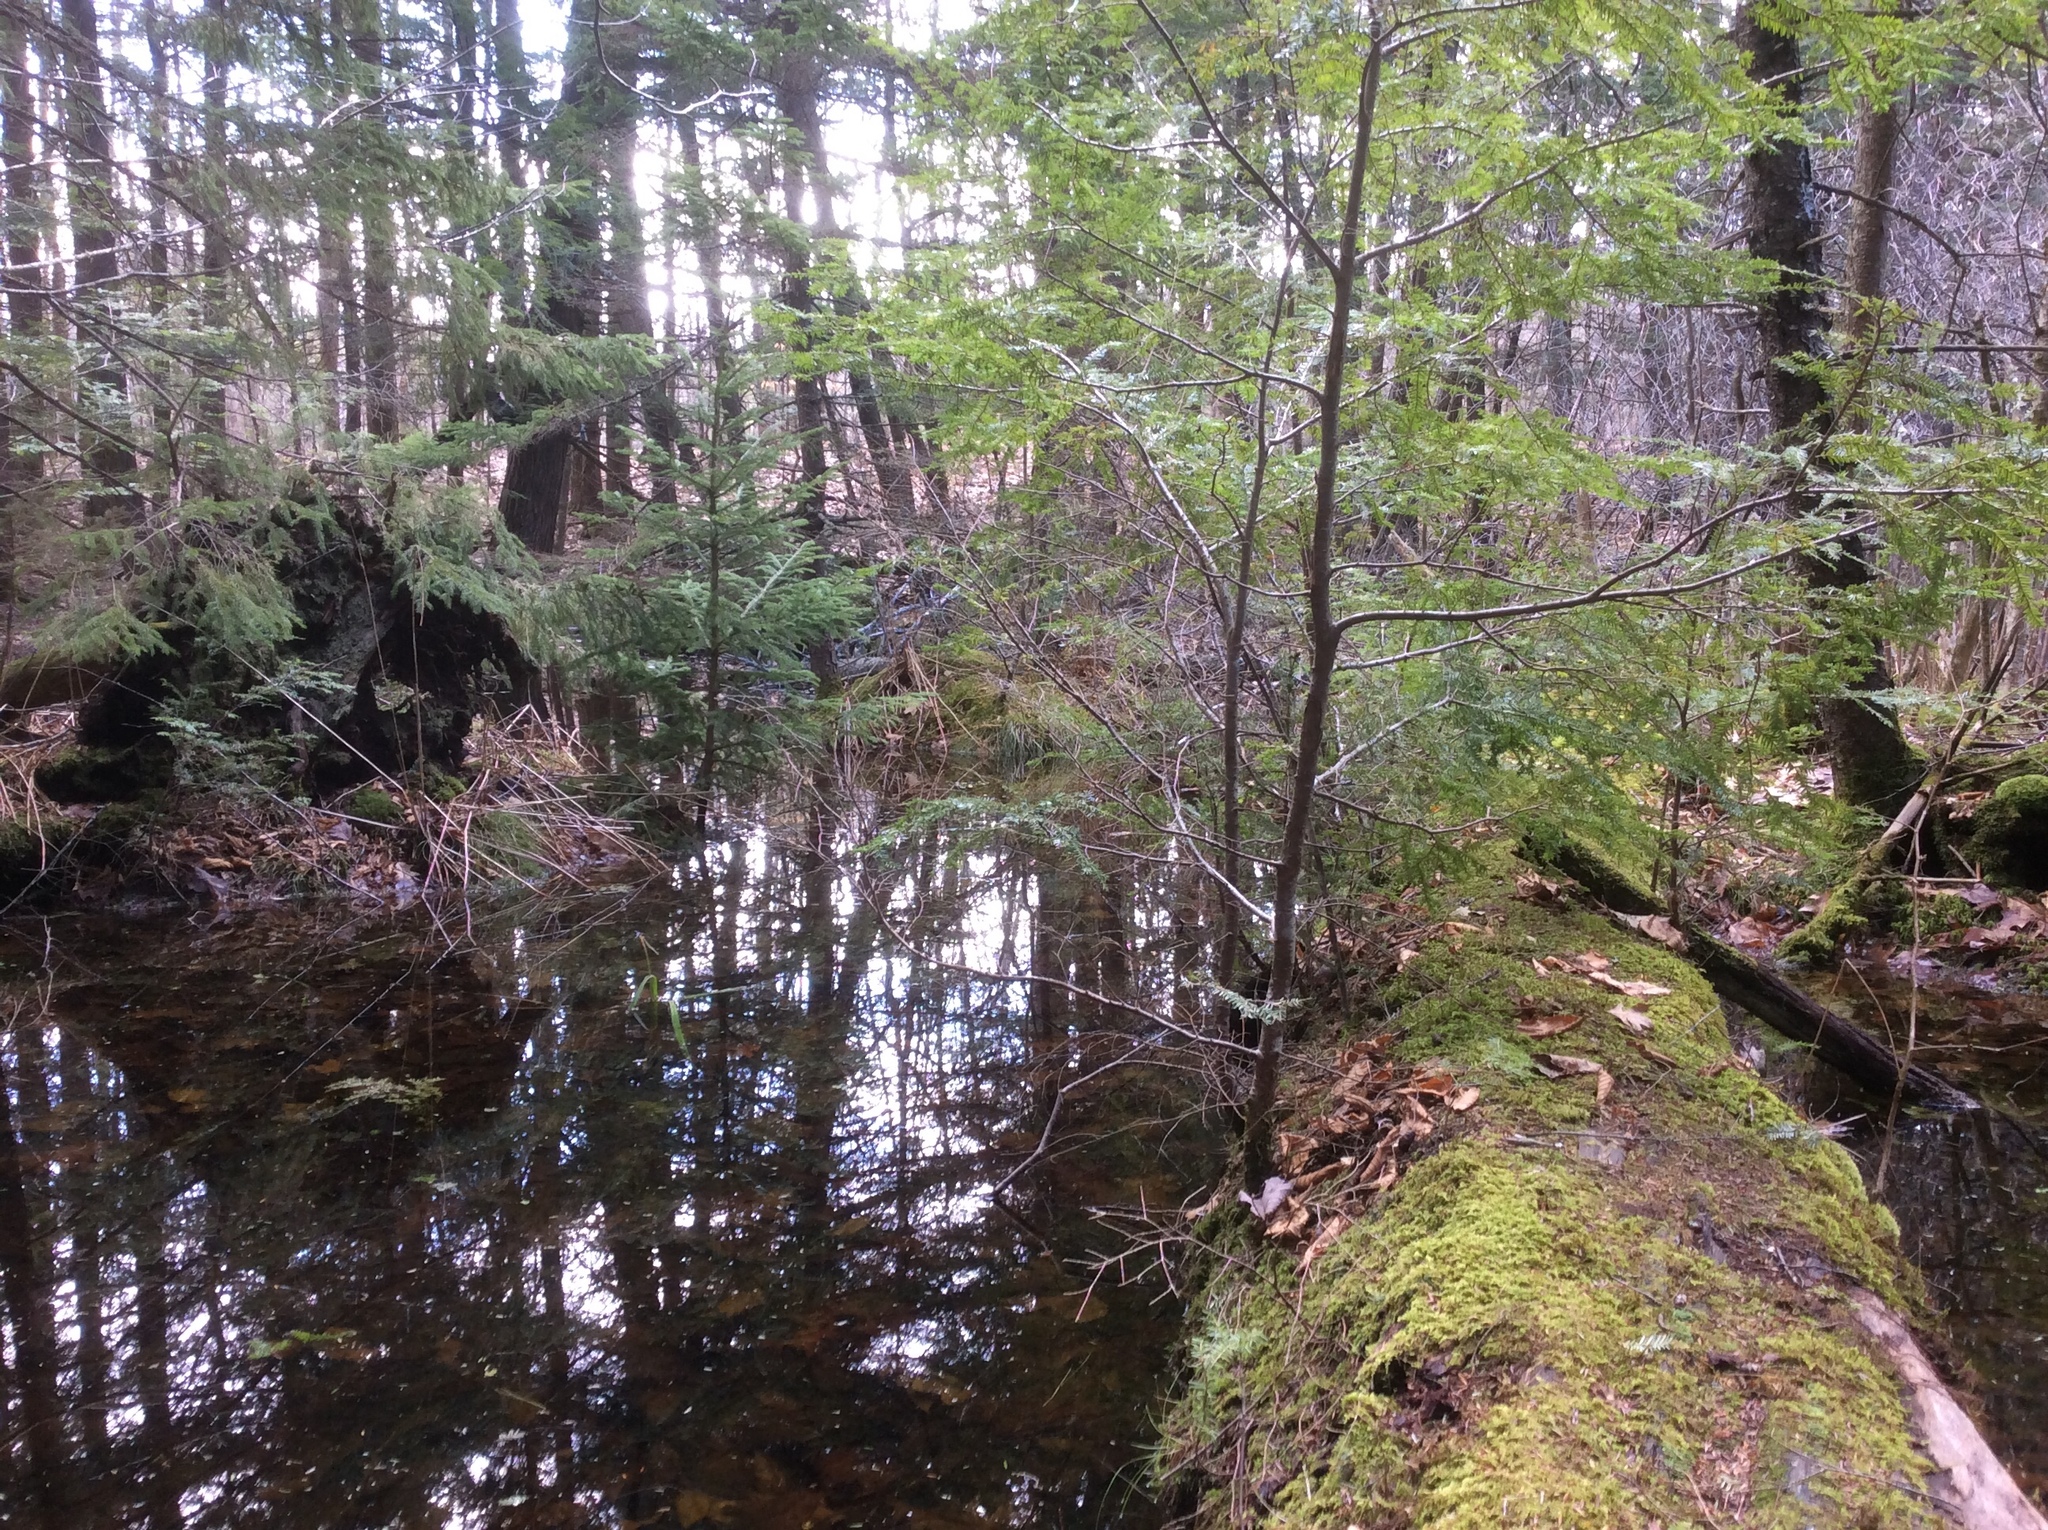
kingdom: Plantae
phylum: Tracheophyta
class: Pinopsida
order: Pinales
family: Pinaceae
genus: Tsuga
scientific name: Tsuga canadensis
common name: Eastern hemlock
